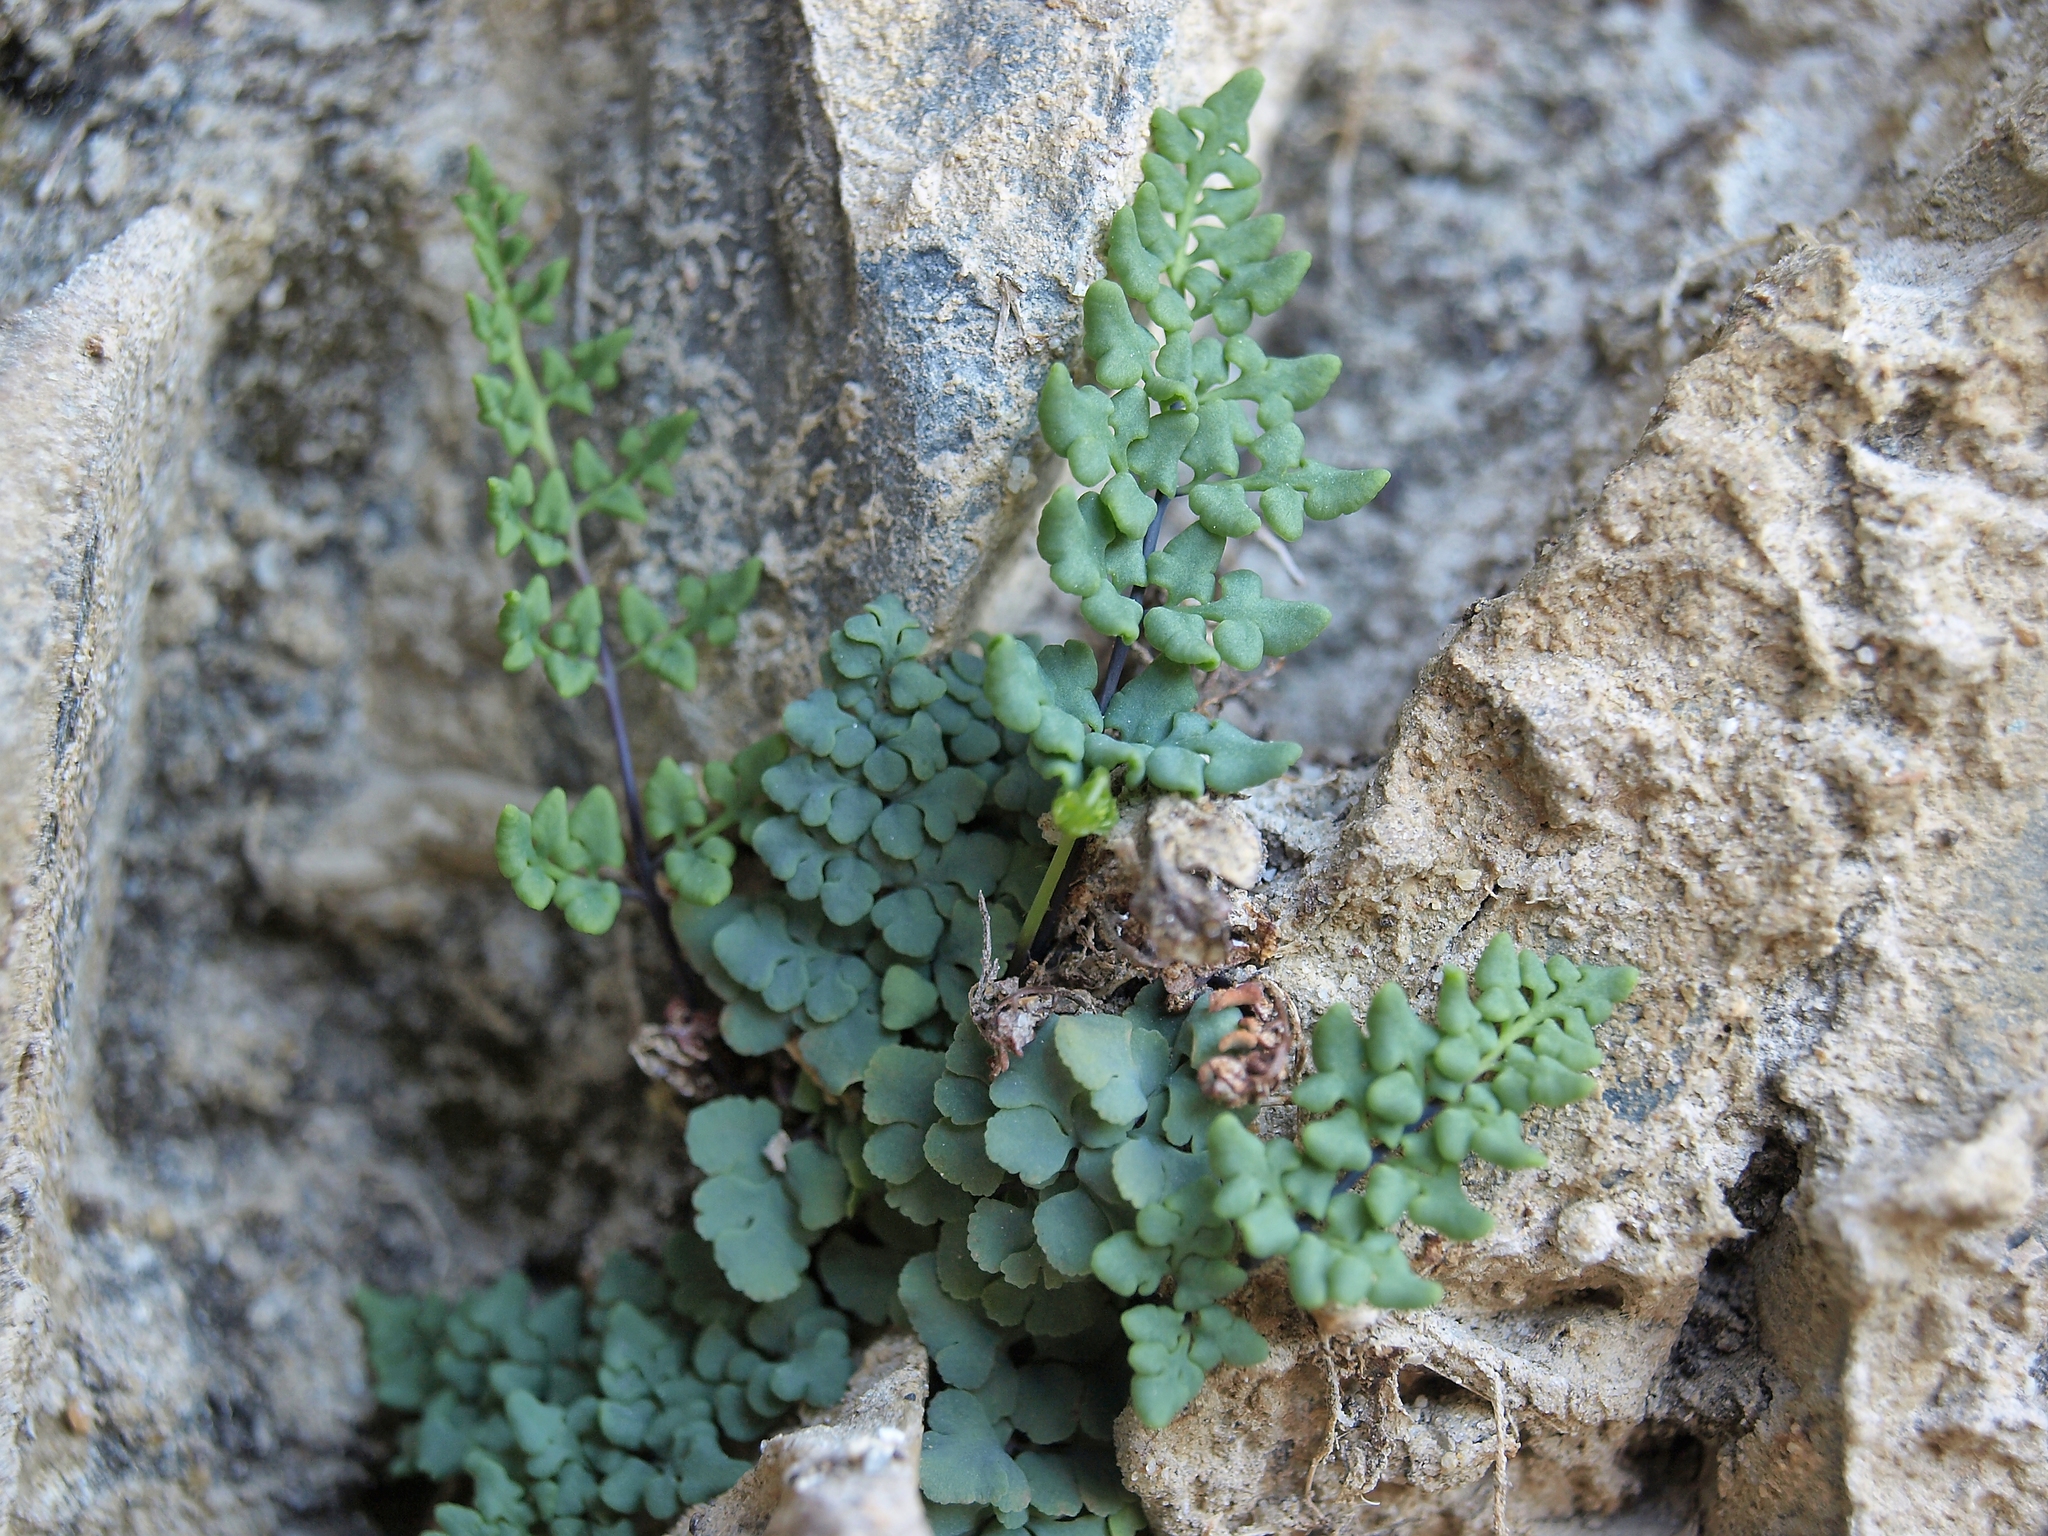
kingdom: Plantae
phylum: Tracheophyta
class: Polypodiopsida
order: Polypodiales
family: Pteridaceae
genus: Argyrochosma
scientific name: Argyrochosma jonesii
